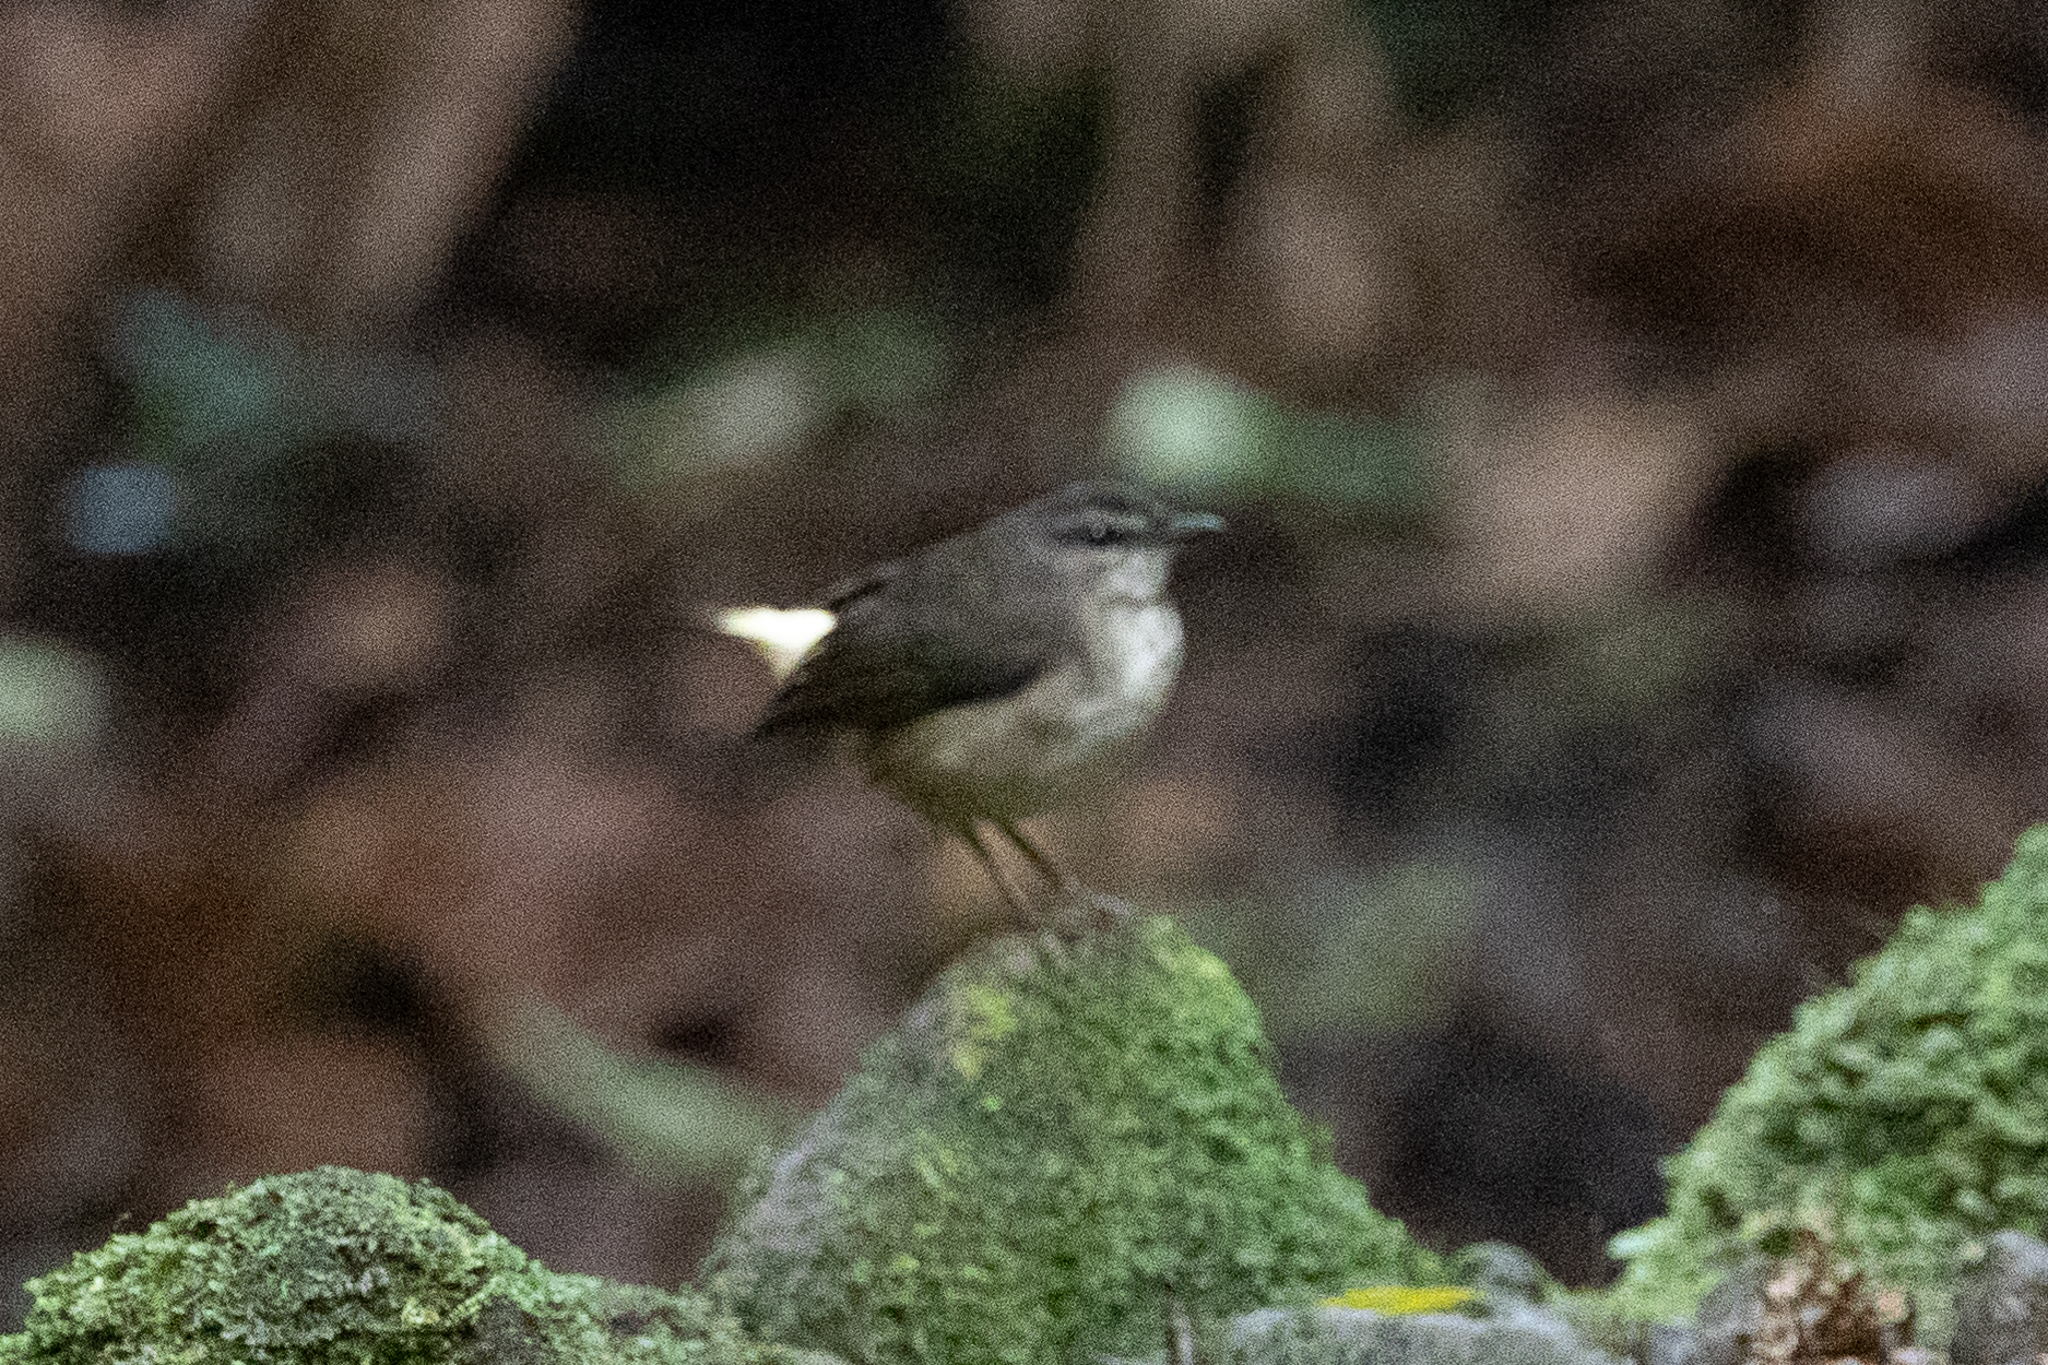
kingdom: Animalia
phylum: Chordata
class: Aves
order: Passeriformes
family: Parulidae
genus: Myiothlypis
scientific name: Myiothlypis fulvicauda
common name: Buff-rumped warbler
